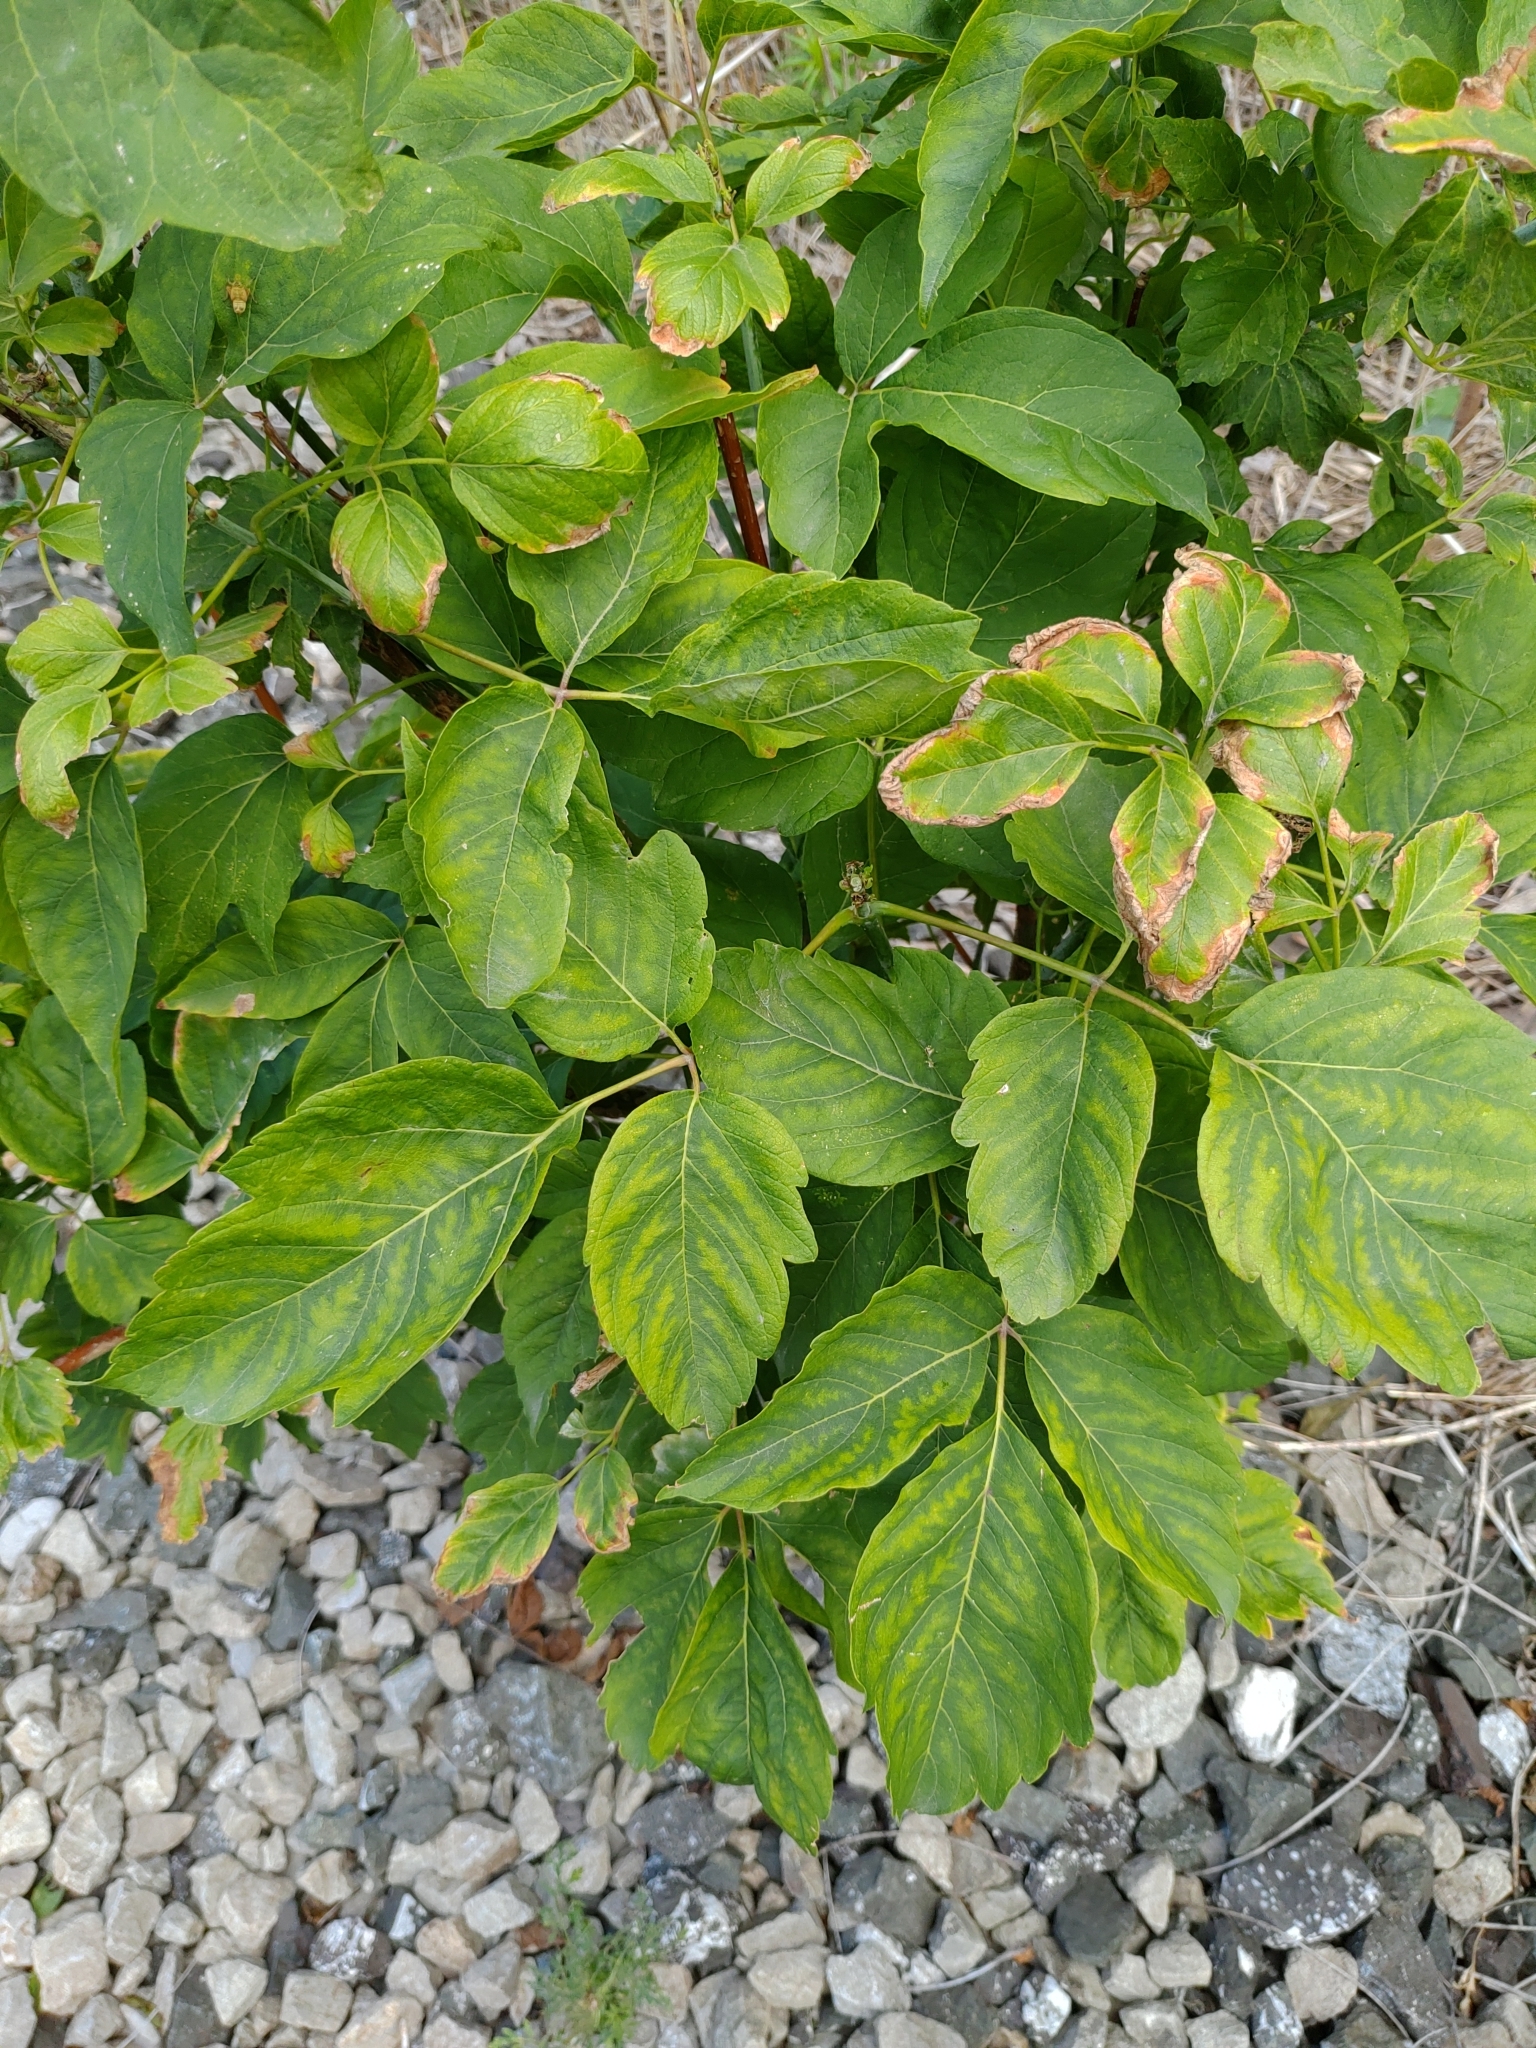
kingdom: Plantae
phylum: Tracheophyta
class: Magnoliopsida
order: Sapindales
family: Sapindaceae
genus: Acer
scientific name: Acer negundo
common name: Ashleaf maple
